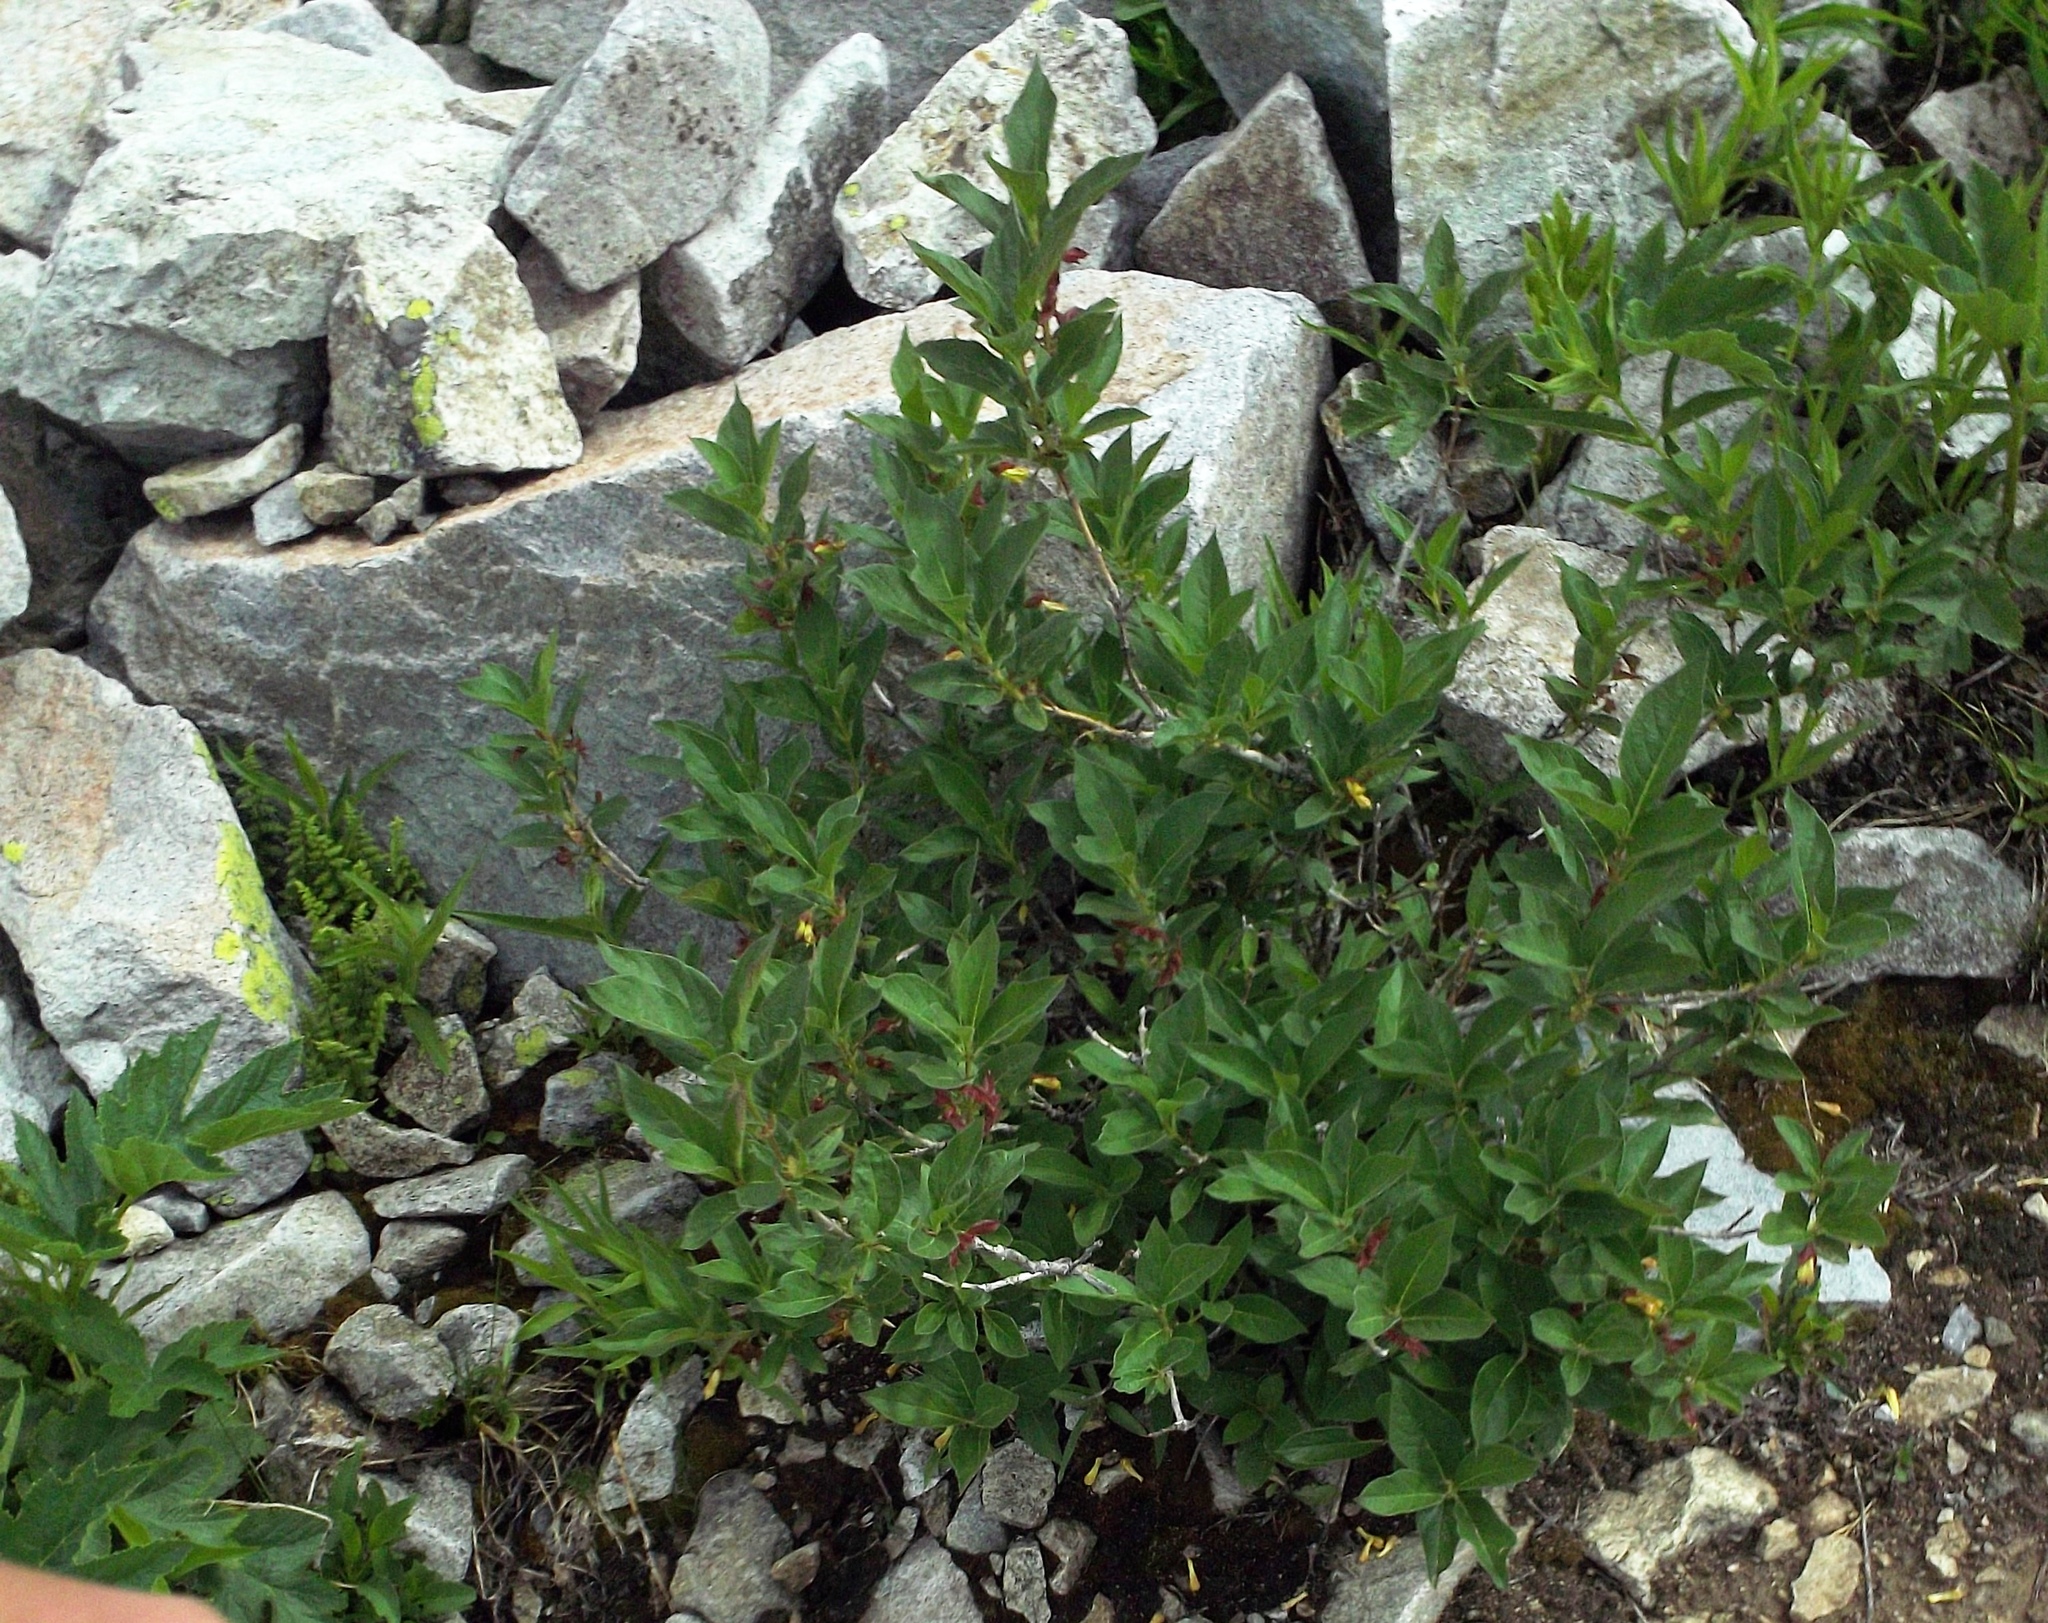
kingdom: Plantae
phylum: Tracheophyta
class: Magnoliopsida
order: Dipsacales
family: Caprifoliaceae
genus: Lonicera
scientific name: Lonicera involucrata
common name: Californian honeysuckle
